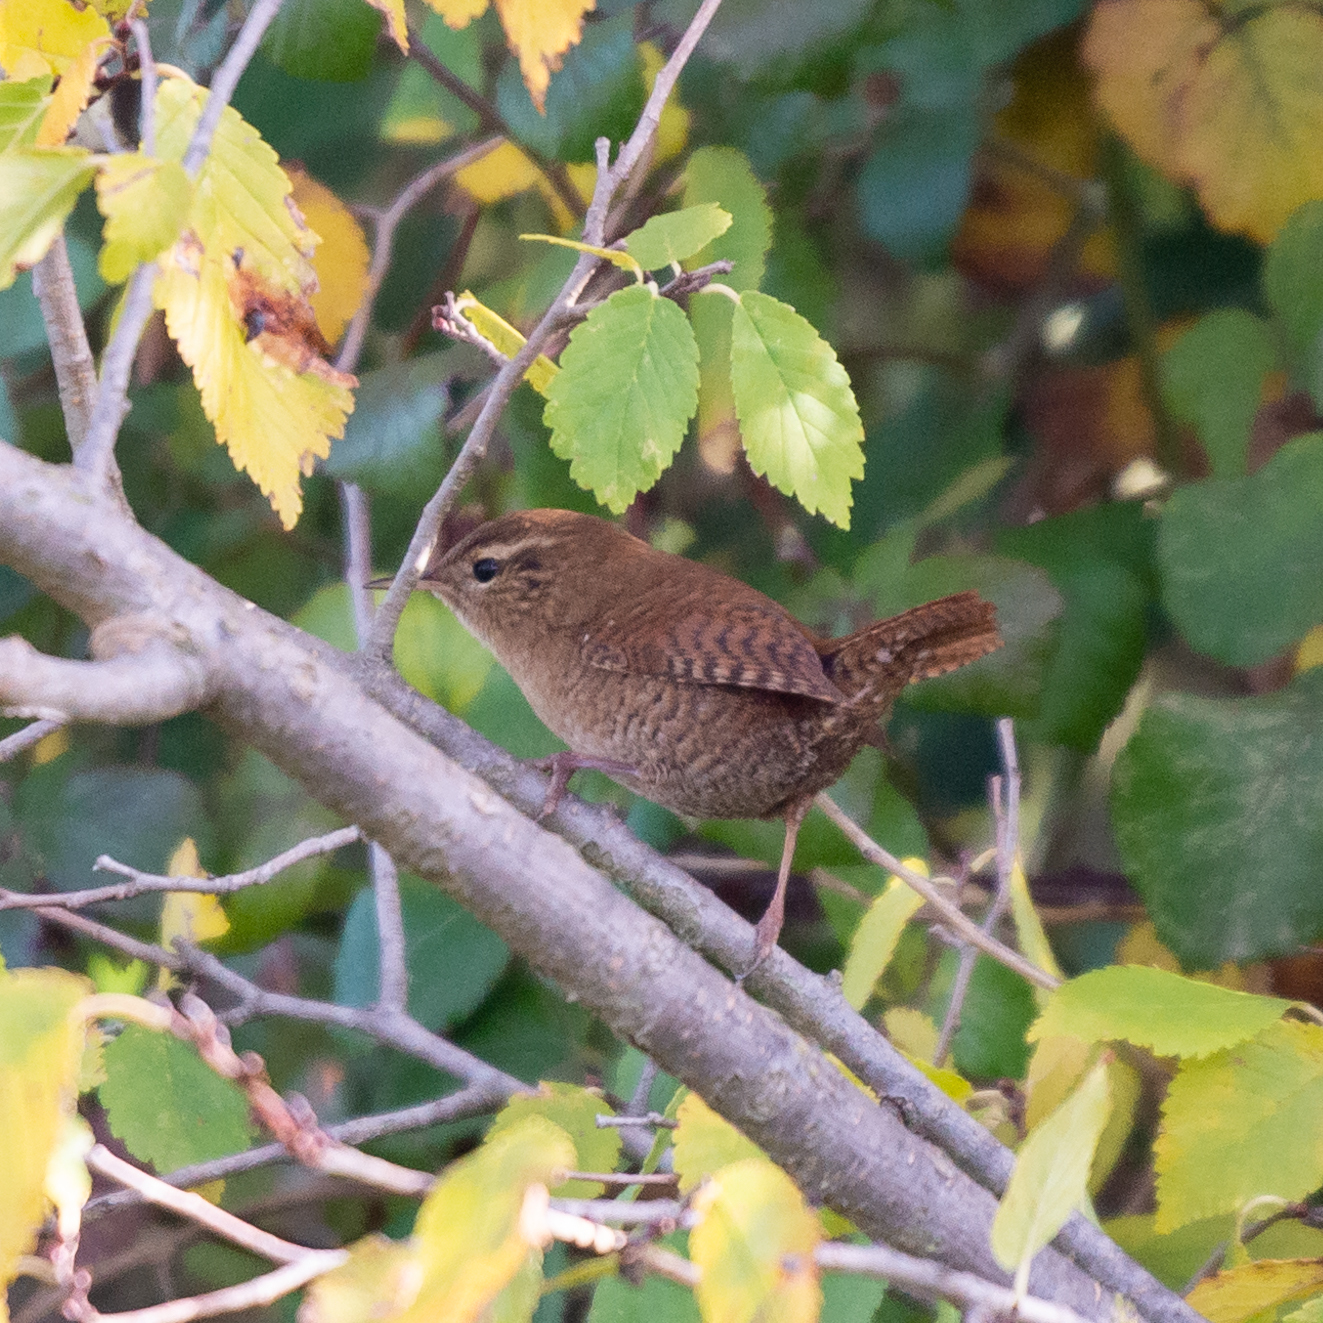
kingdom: Animalia
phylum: Chordata
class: Aves
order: Passeriformes
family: Troglodytidae
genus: Troglodytes
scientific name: Troglodytes troglodytes
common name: Eurasian wren
